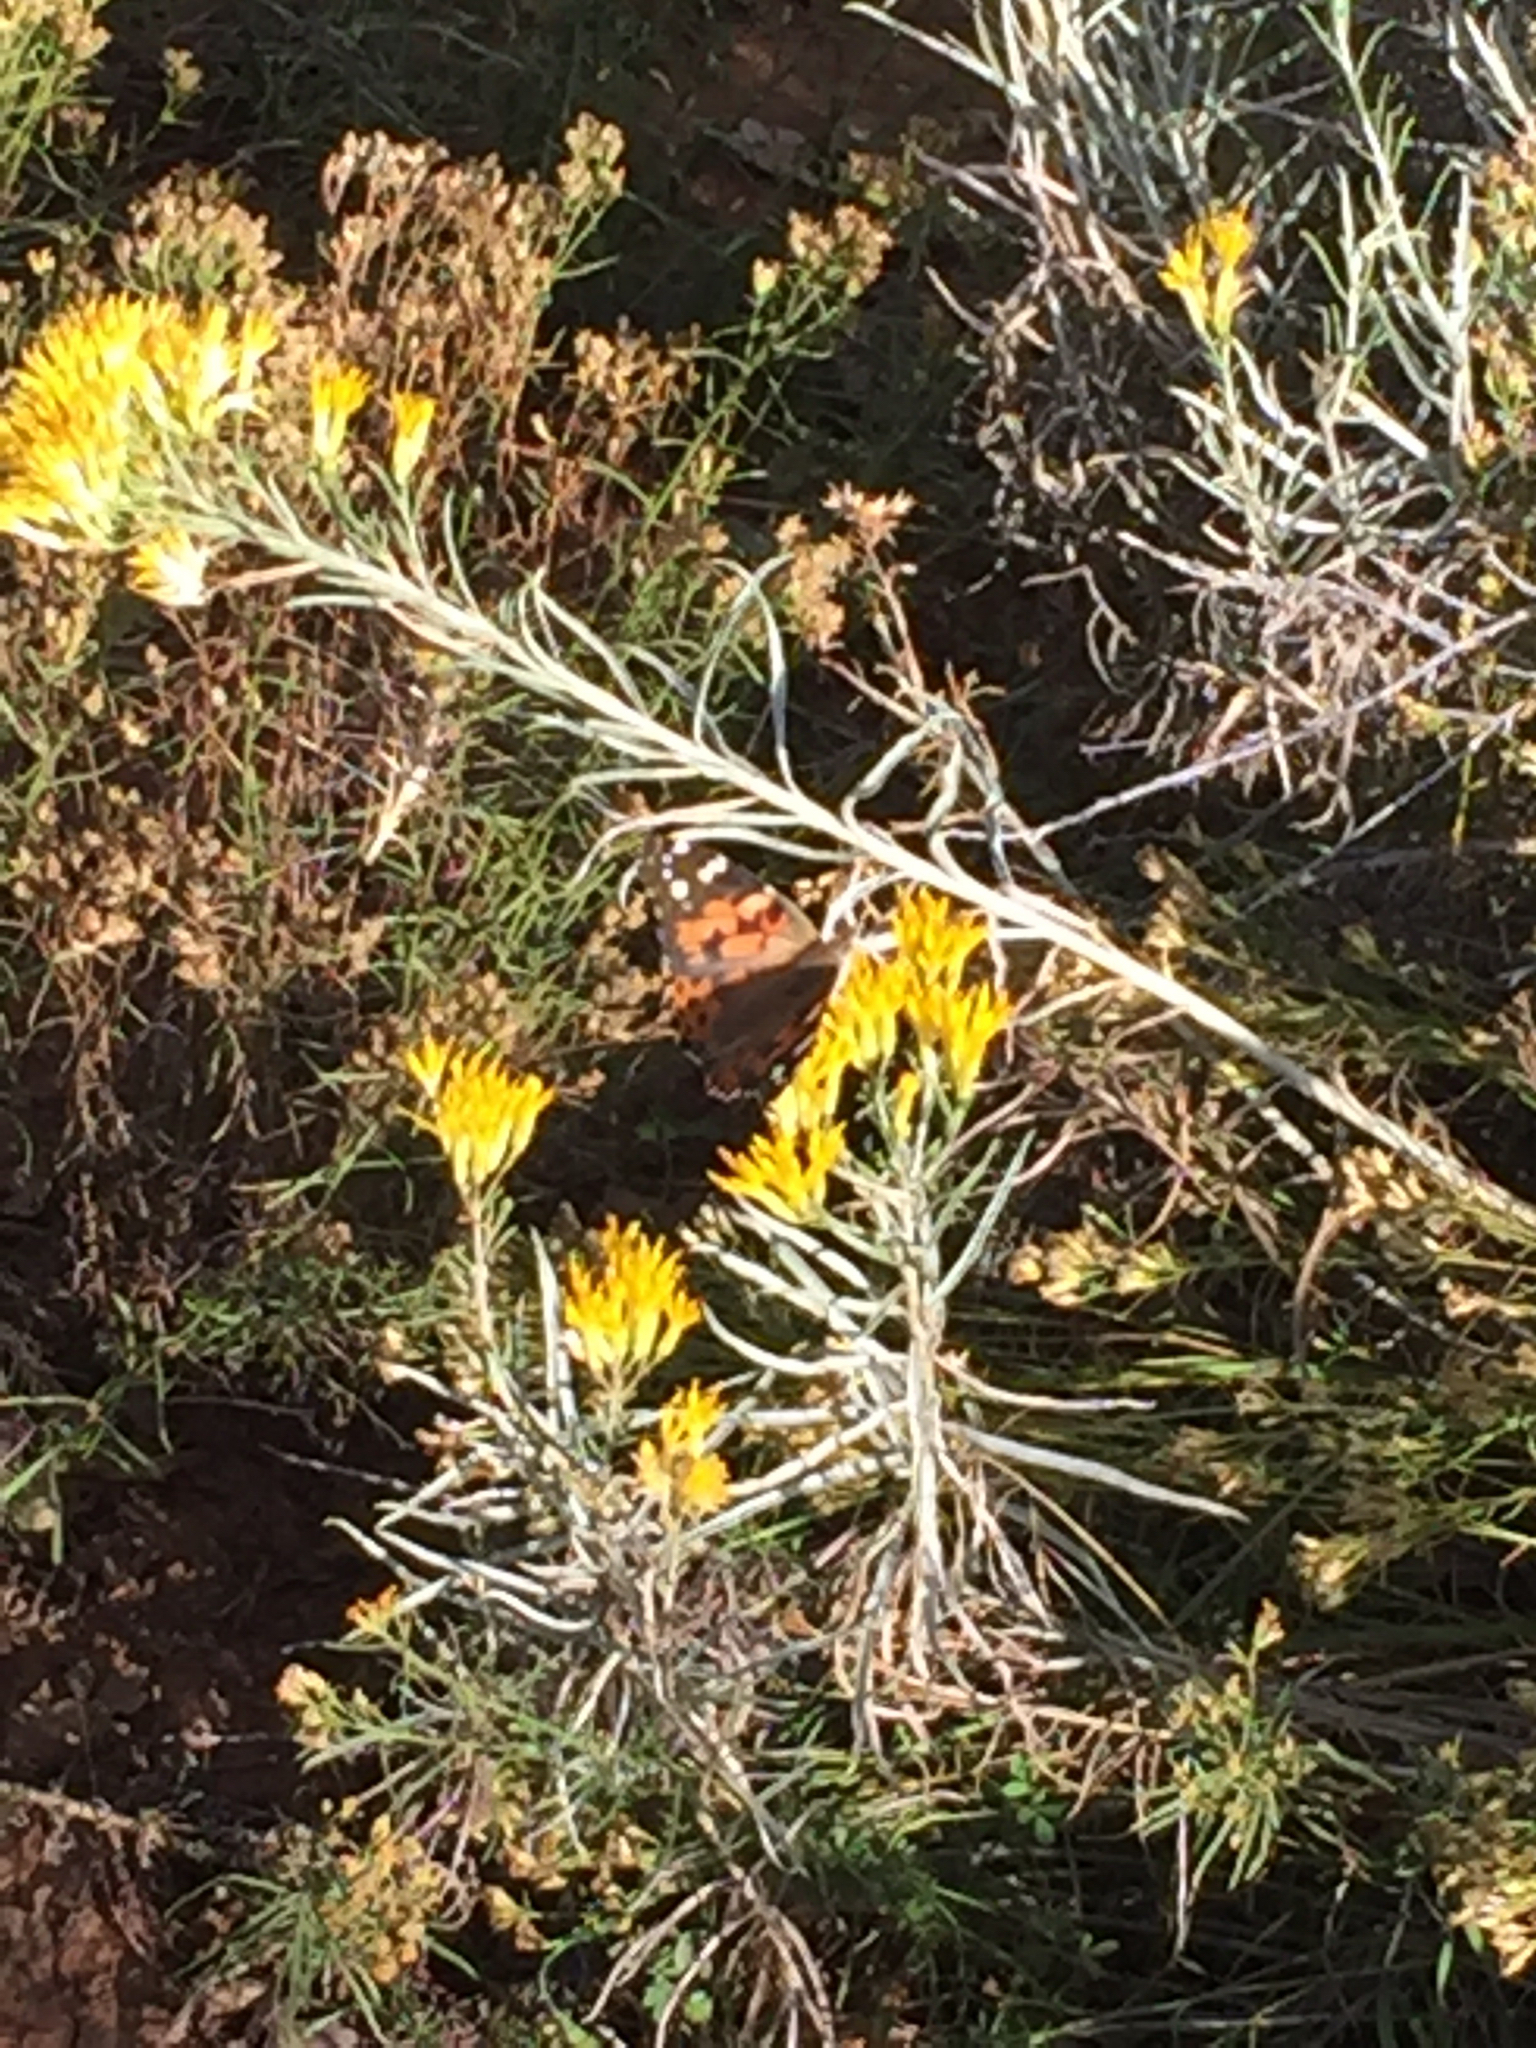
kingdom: Animalia
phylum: Arthropoda
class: Insecta
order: Lepidoptera
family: Nymphalidae
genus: Vanessa
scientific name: Vanessa cardui
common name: Painted lady
